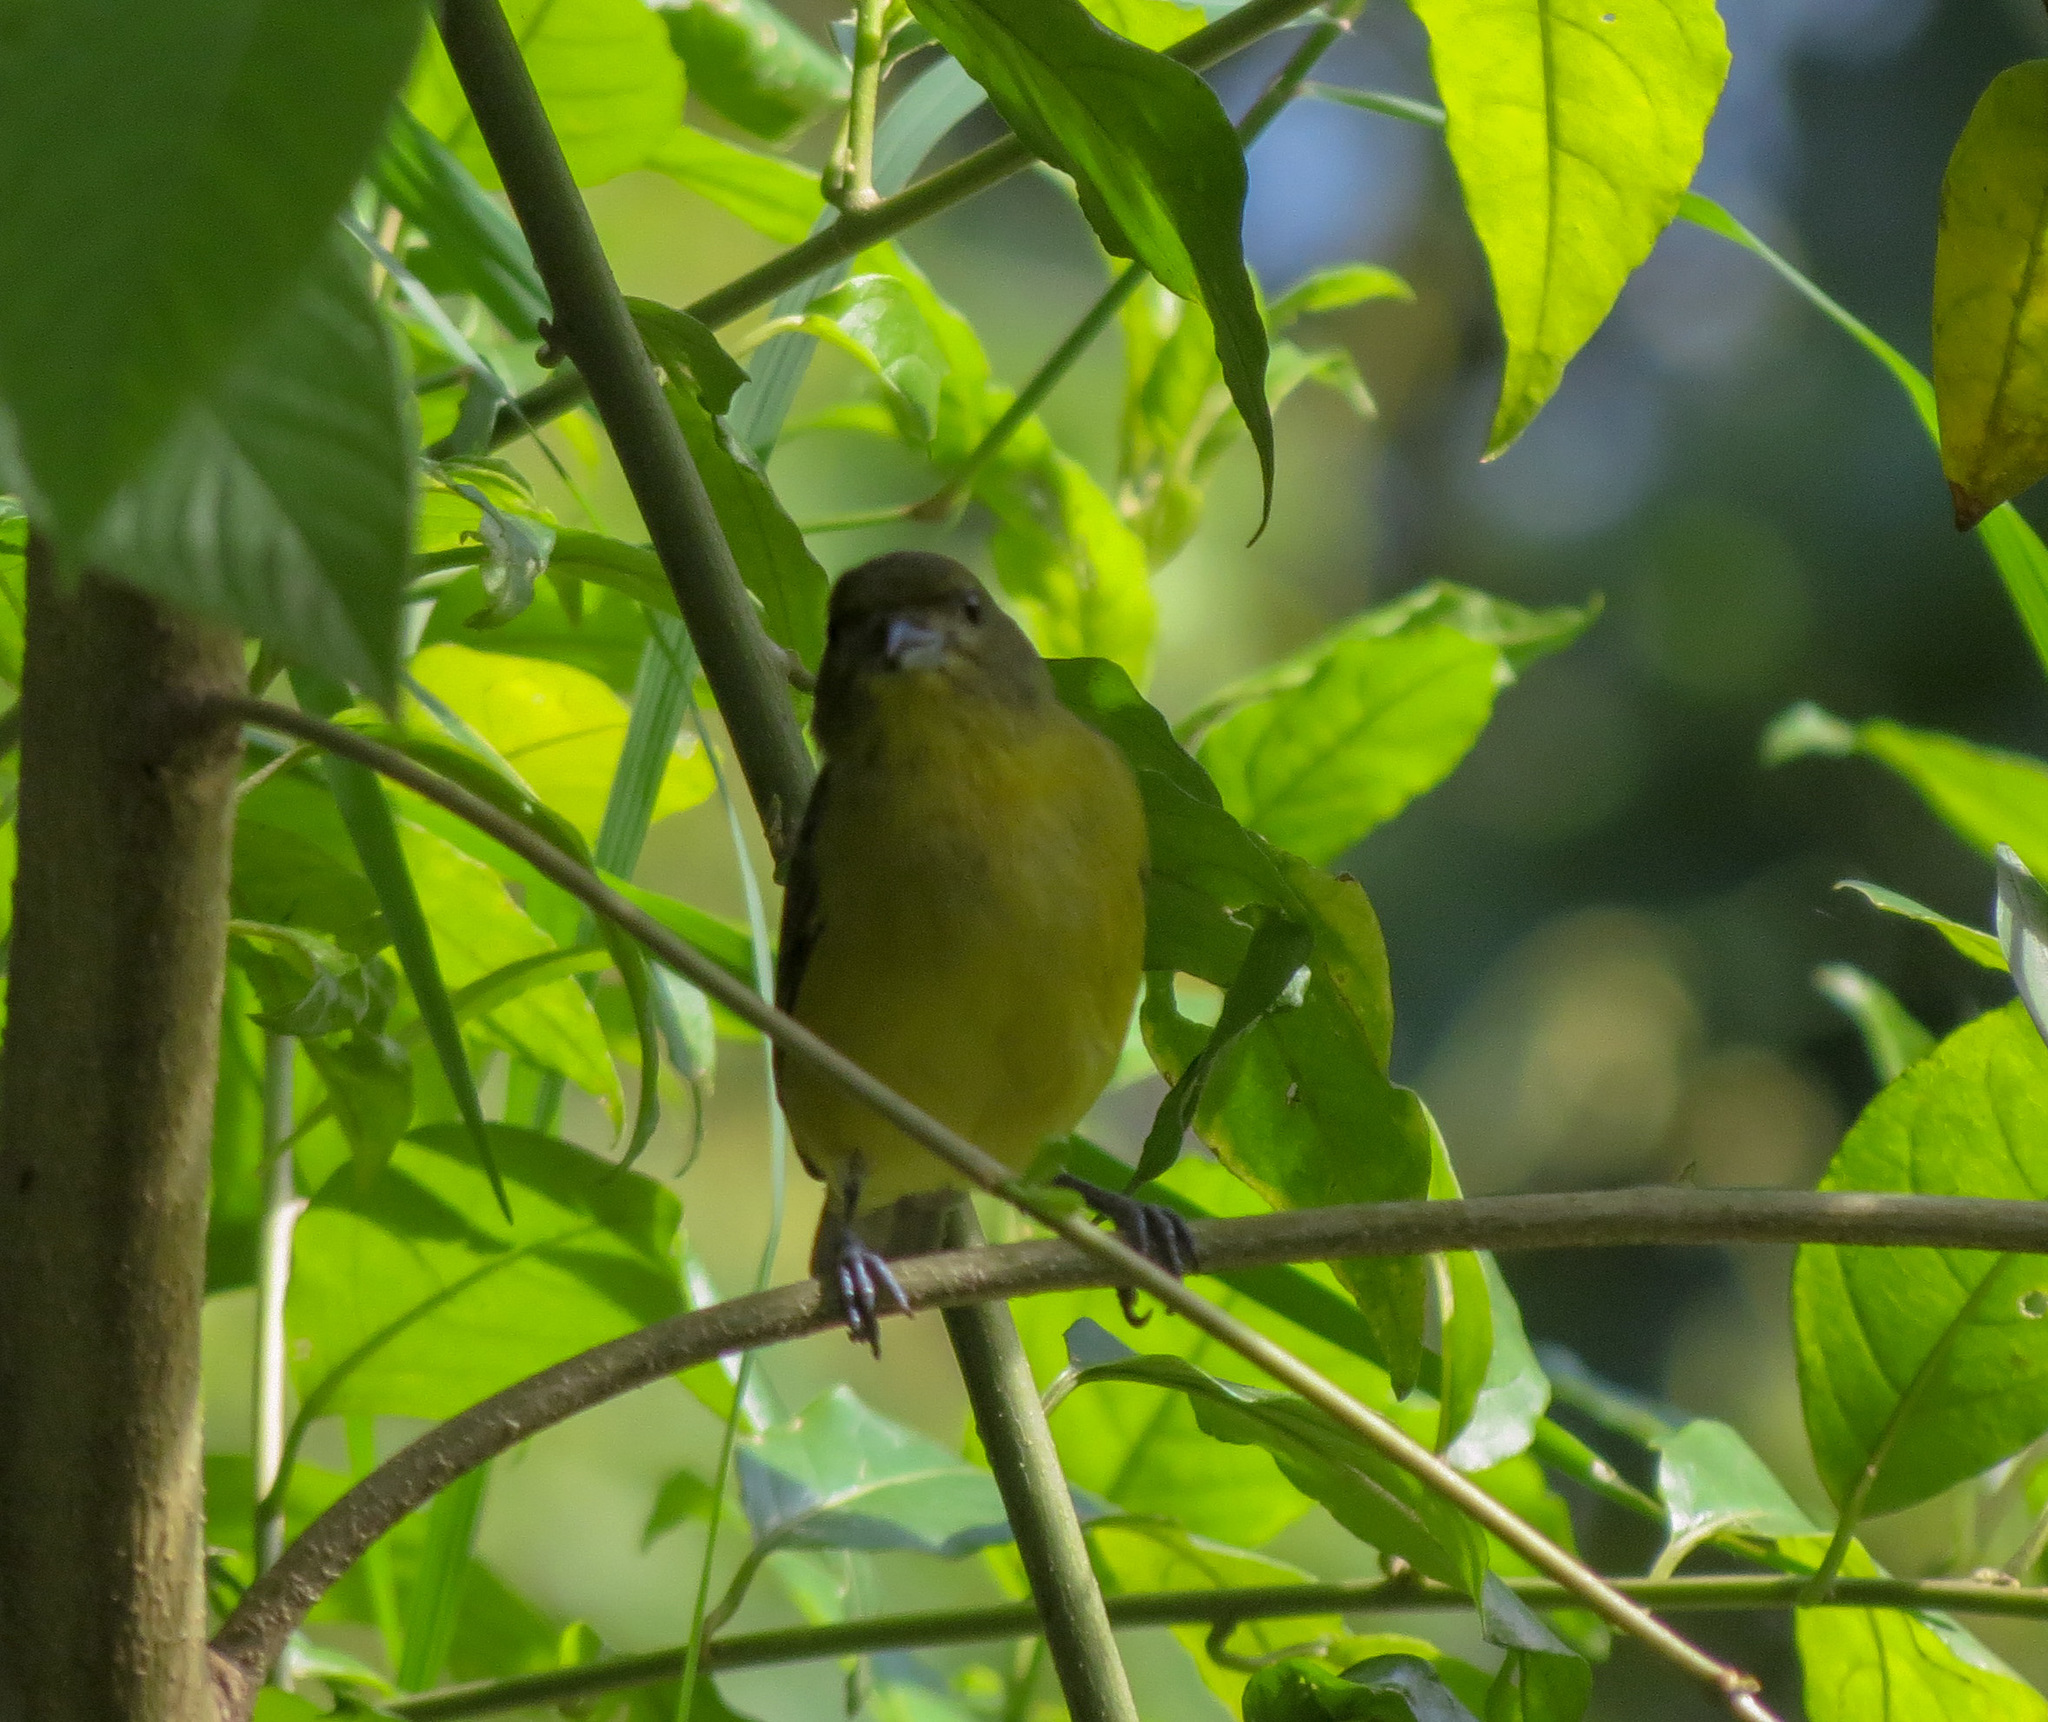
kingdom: Animalia
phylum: Chordata
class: Aves
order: Passeriformes
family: Fringillidae
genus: Euphonia
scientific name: Euphonia laniirostris
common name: Thick-billed euphonia
